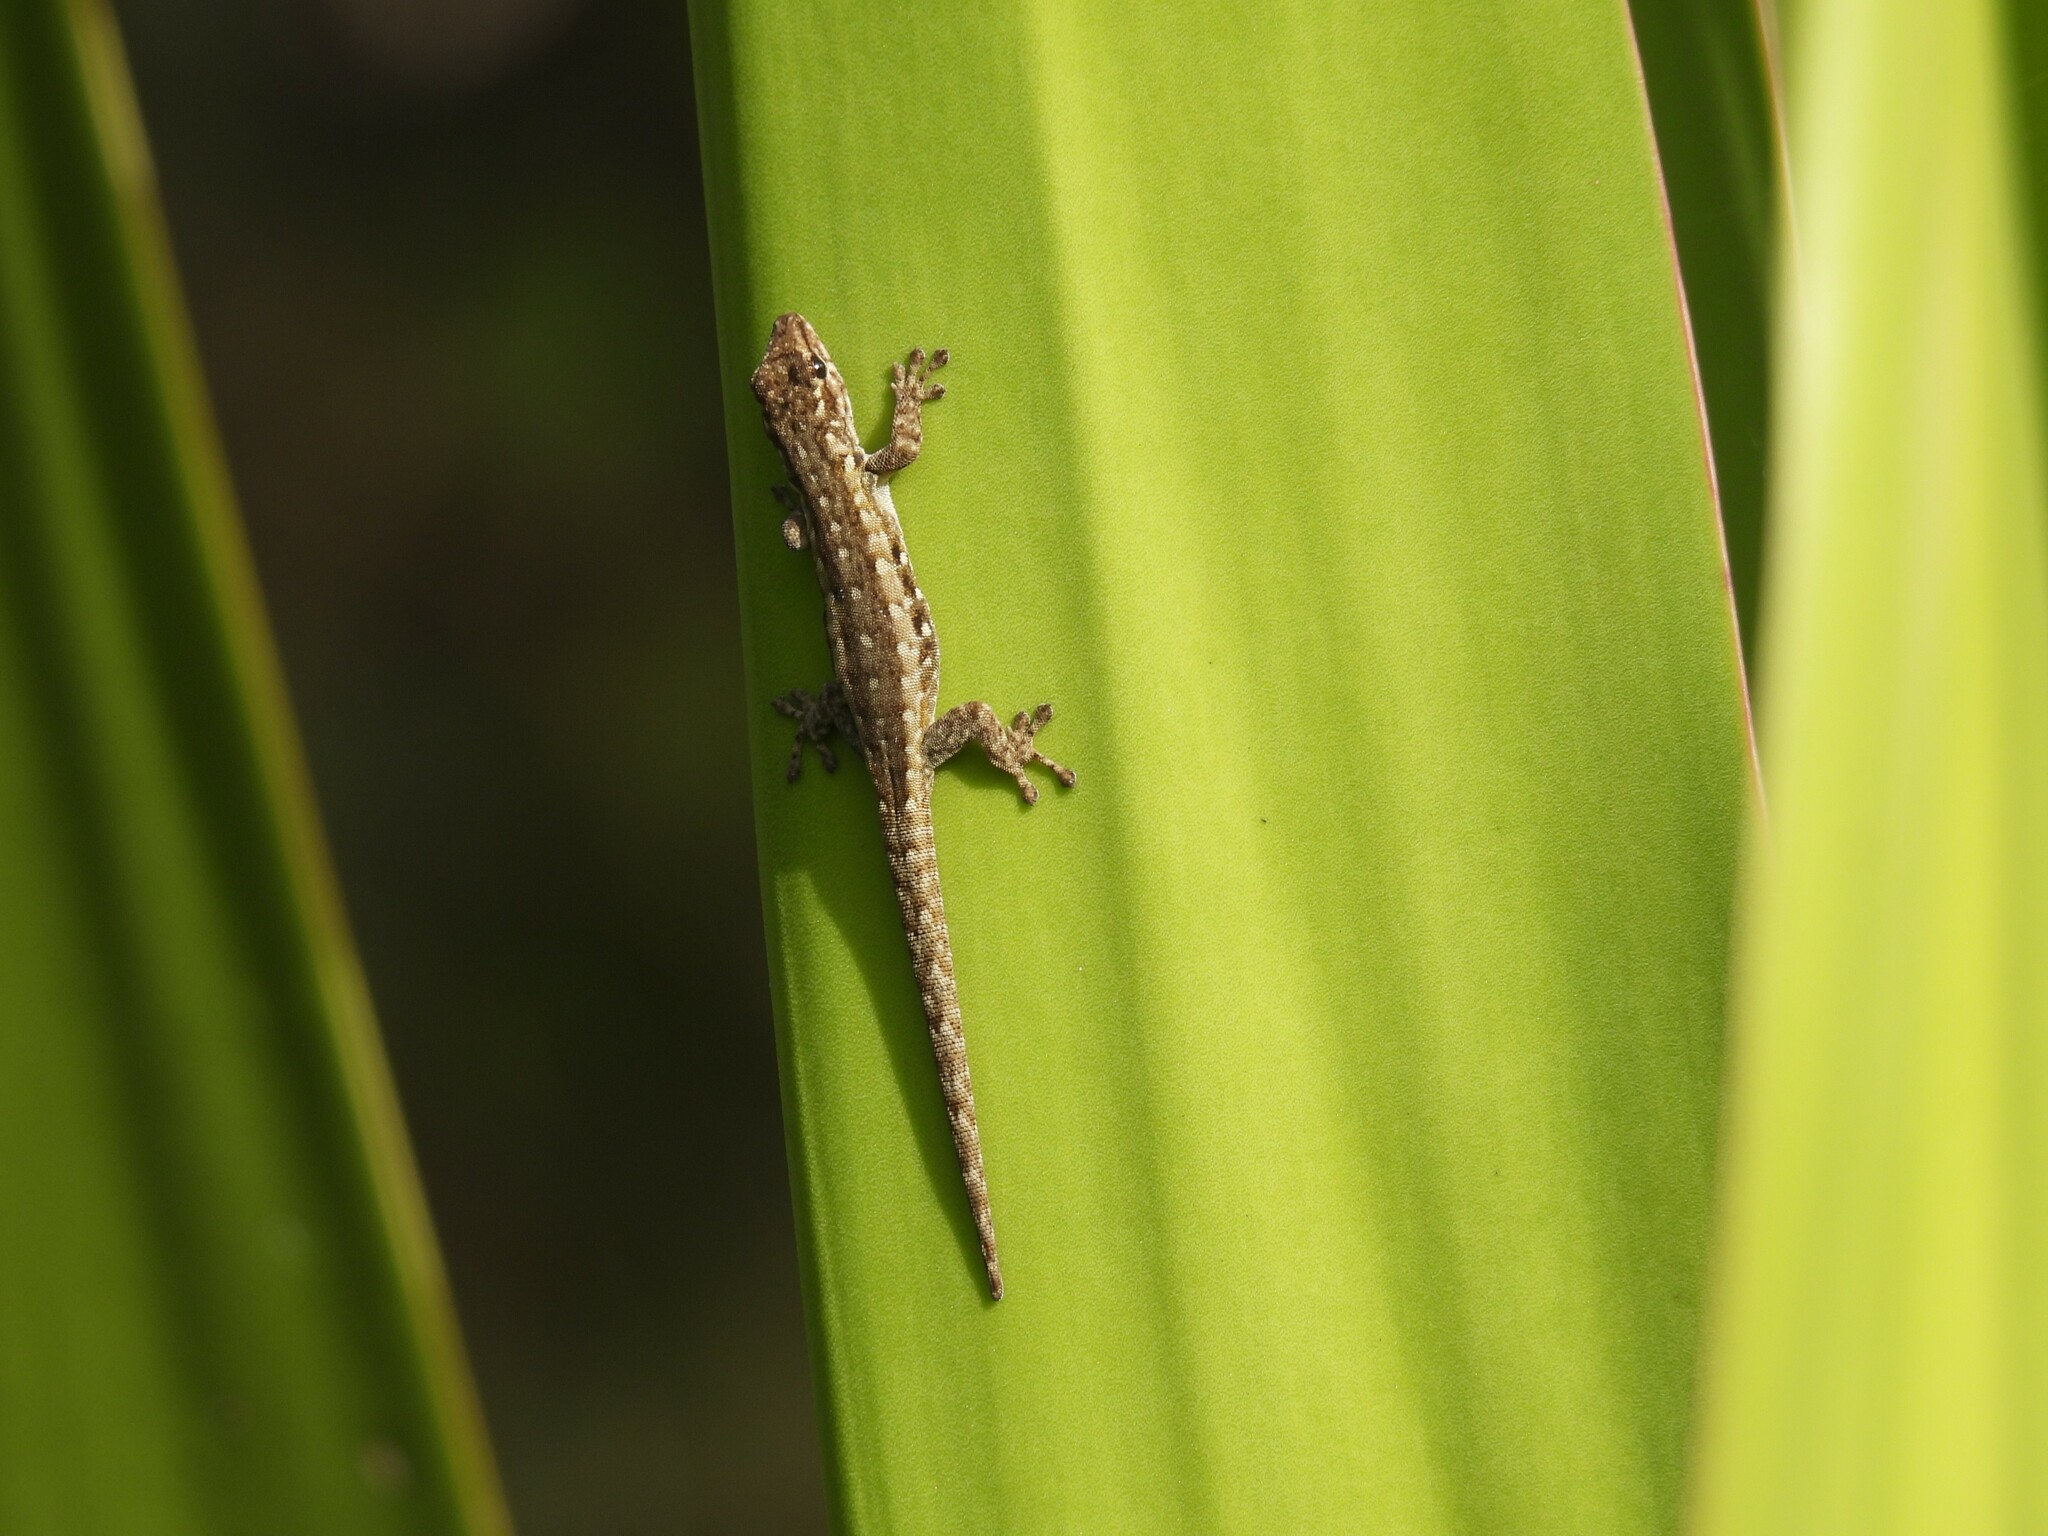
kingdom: Animalia
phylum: Chordata
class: Squamata
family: Gekkonidae
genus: Lygodactylus
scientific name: Lygodactylus angularis
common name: Angulate dwarf gecko
